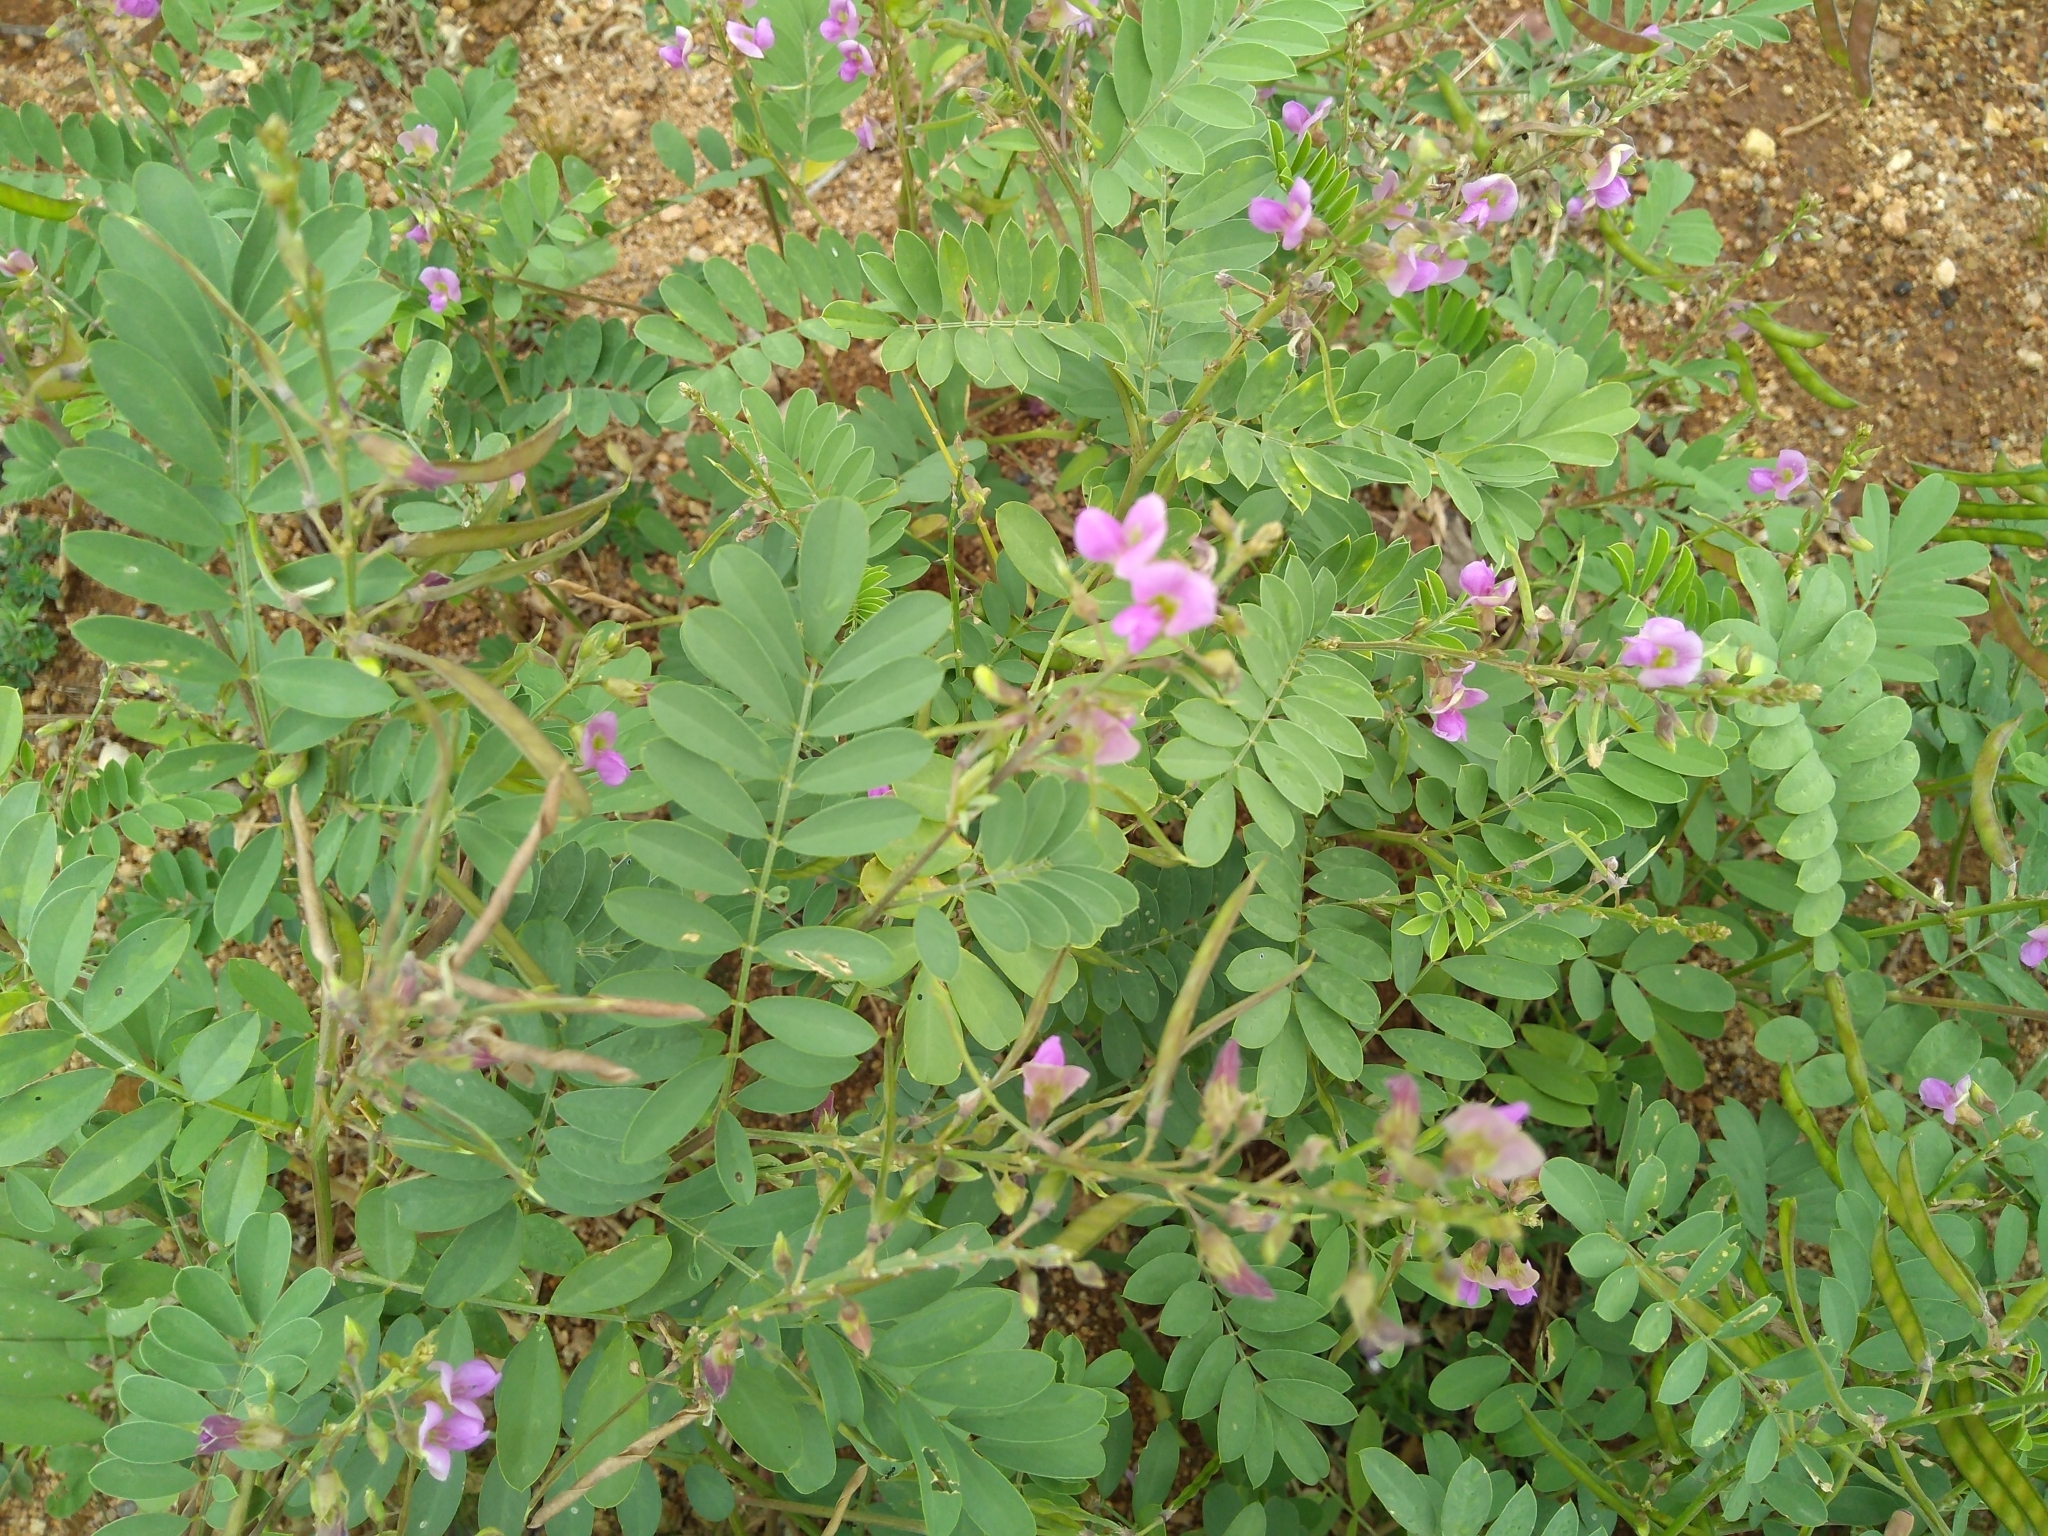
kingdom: Plantae
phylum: Tracheophyta
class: Magnoliopsida
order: Fabales
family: Fabaceae
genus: Tephrosia
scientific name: Tephrosia purpurea
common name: Fishpoison
